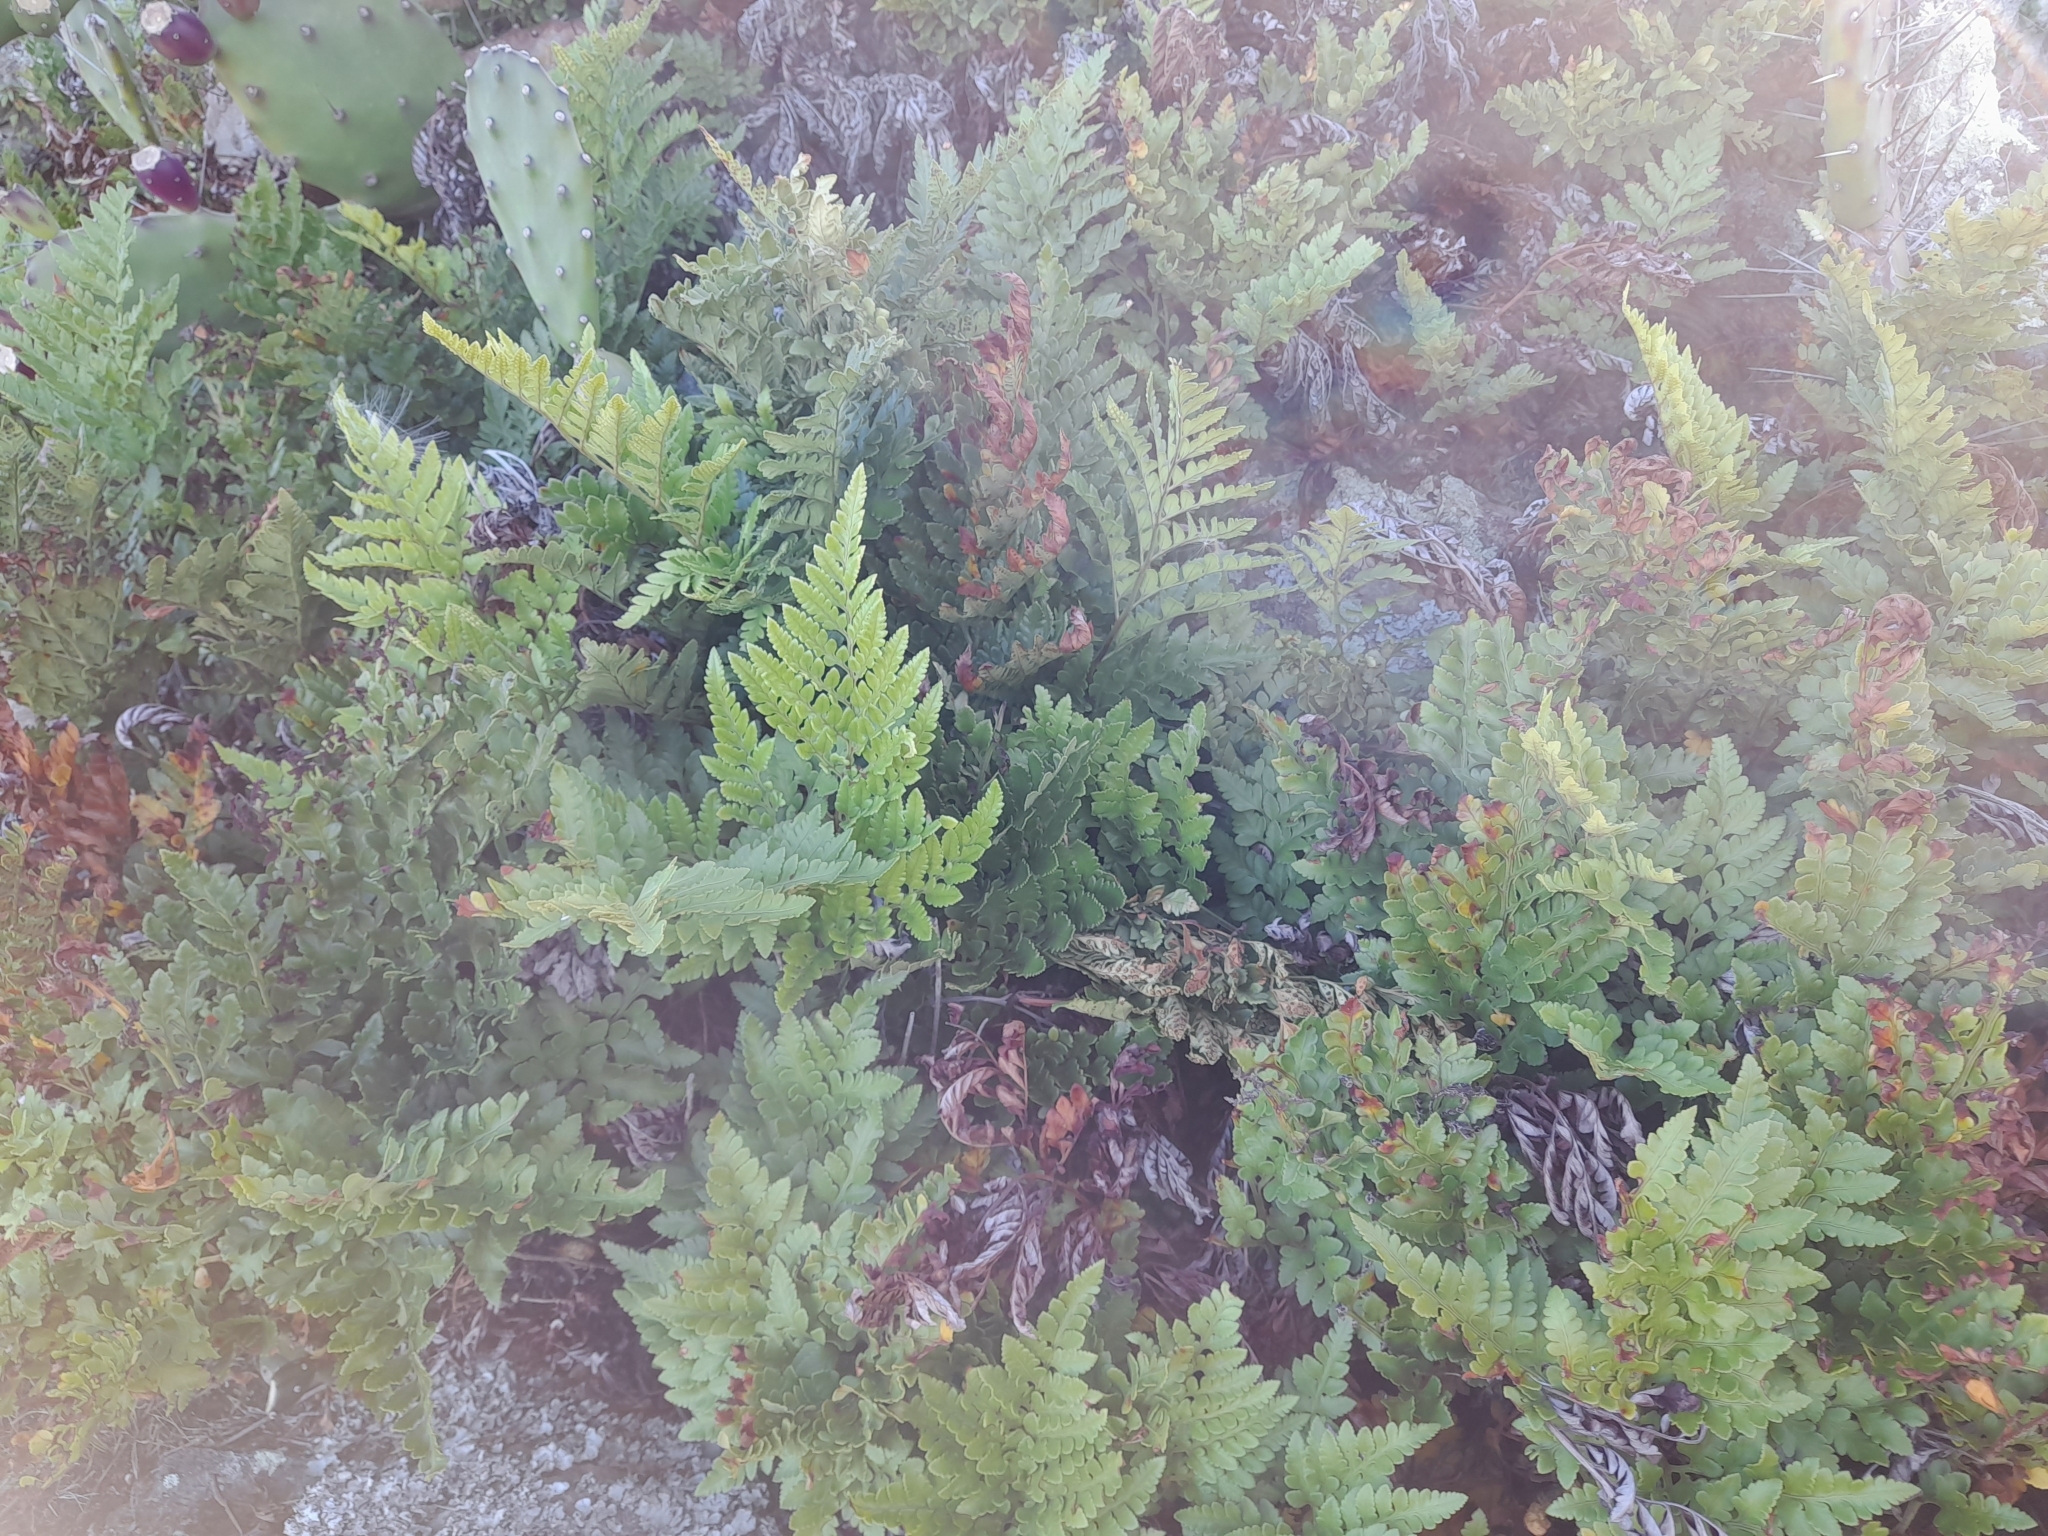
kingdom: Plantae
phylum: Tracheophyta
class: Polypodiopsida
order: Polypodiales
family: Dryopteridaceae
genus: Rumohra
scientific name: Rumohra adiantiformis
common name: Leather fern
